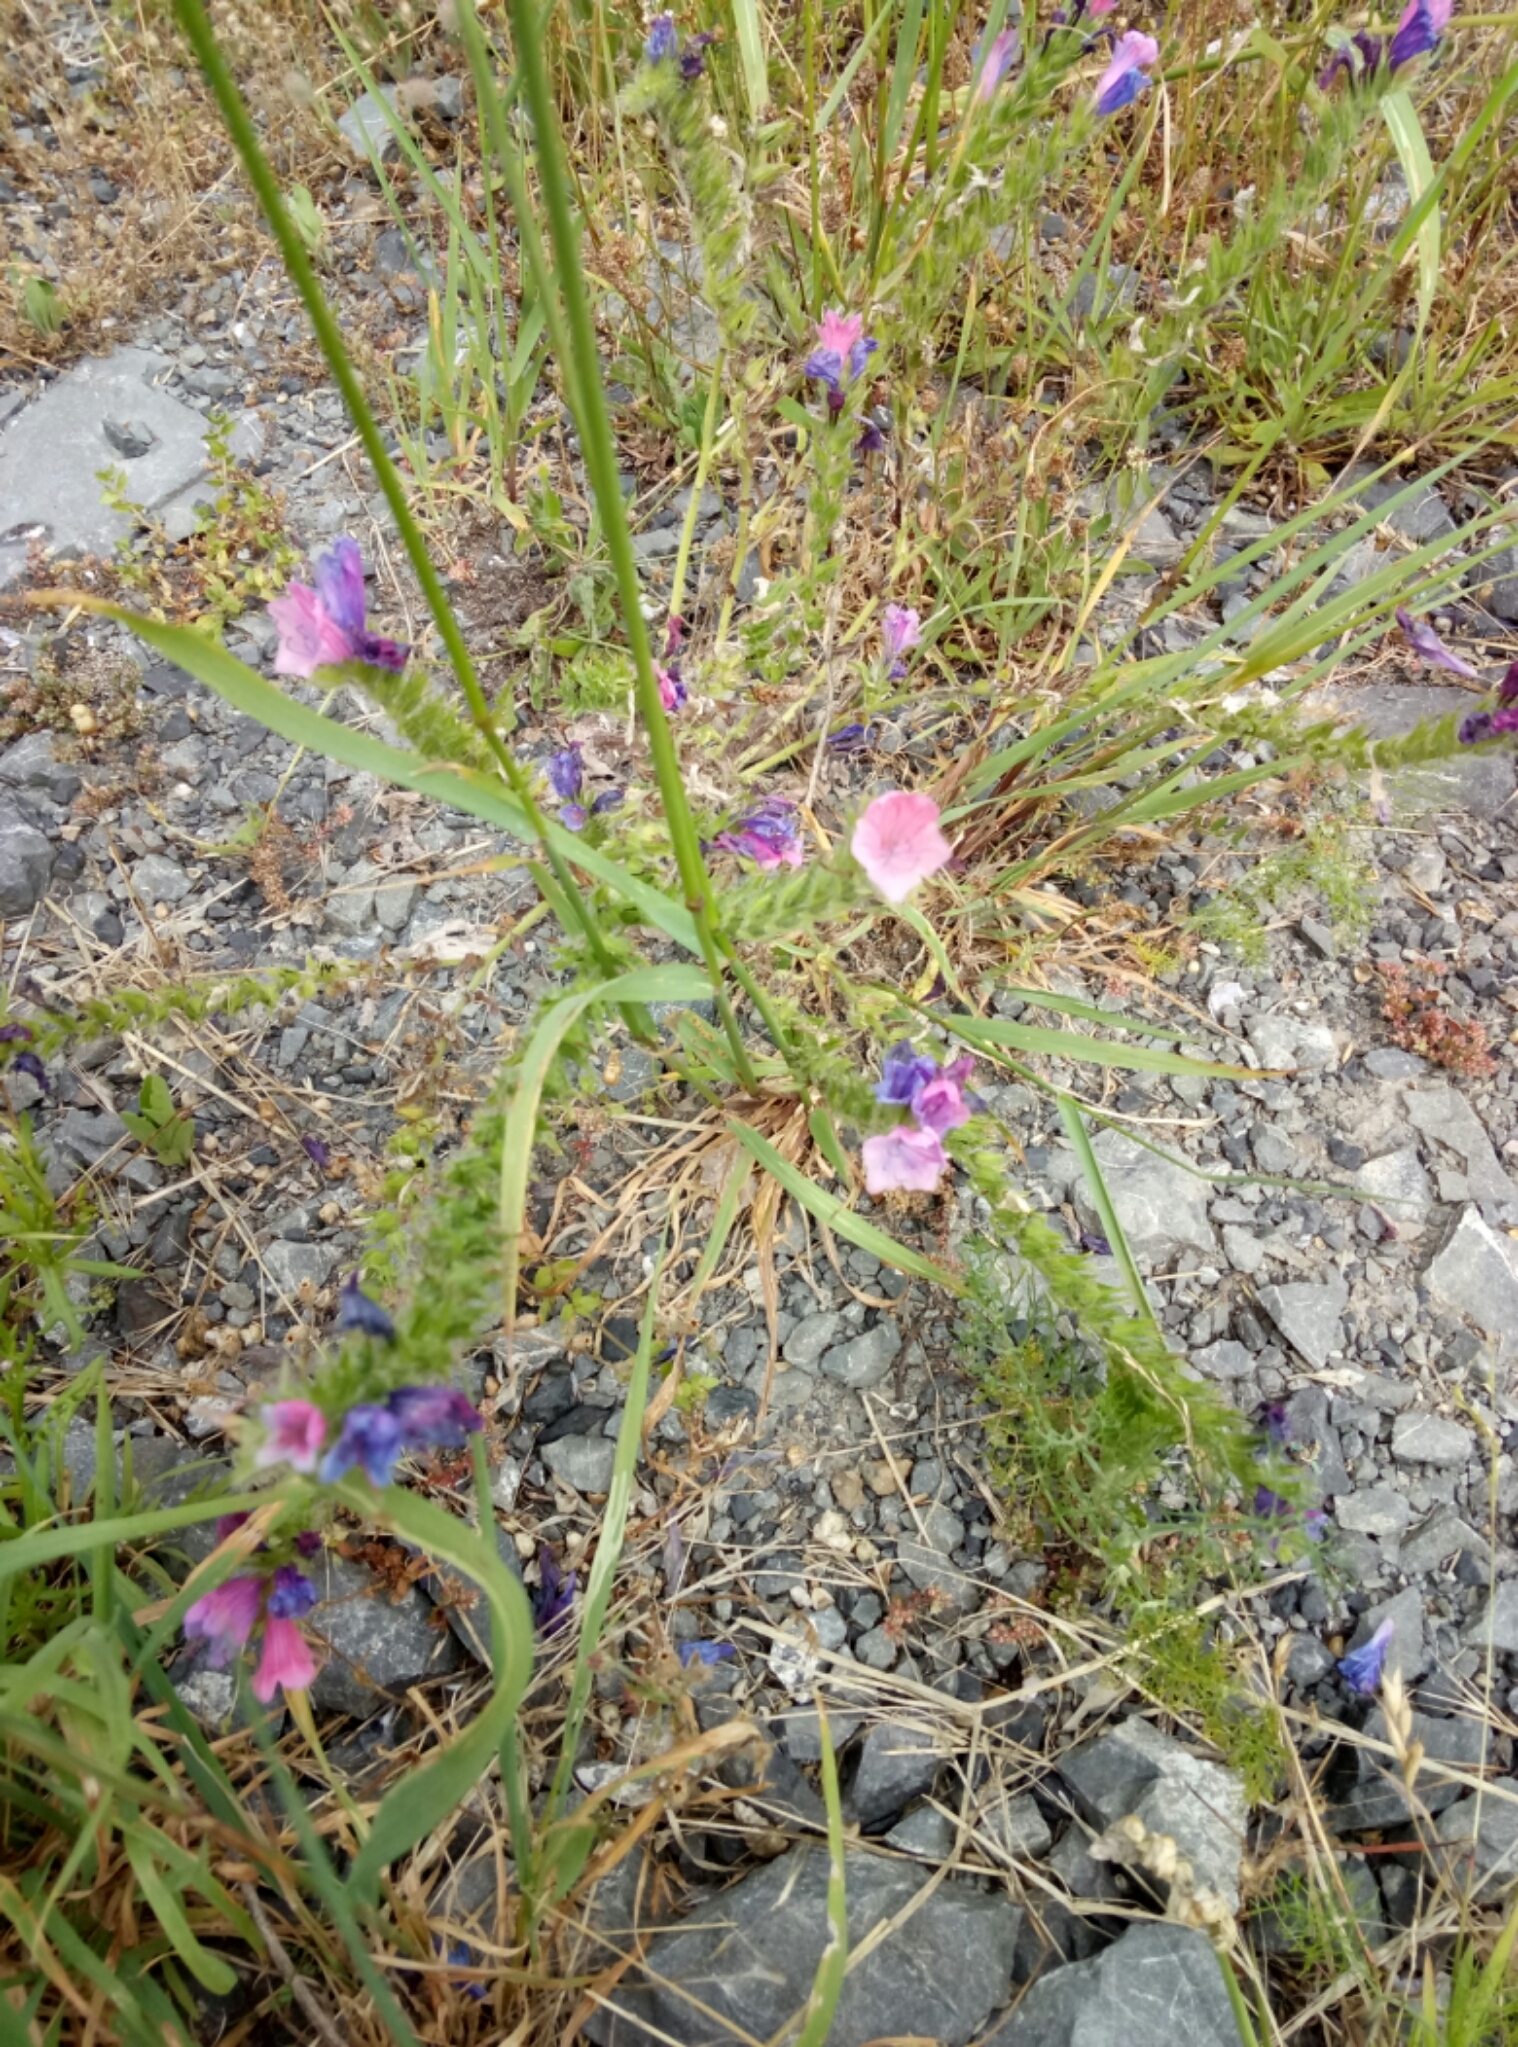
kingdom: Plantae
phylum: Tracheophyta
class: Magnoliopsida
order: Boraginales
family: Boraginaceae
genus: Echium
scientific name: Echium plantagineum
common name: Purple viper's-bugloss
